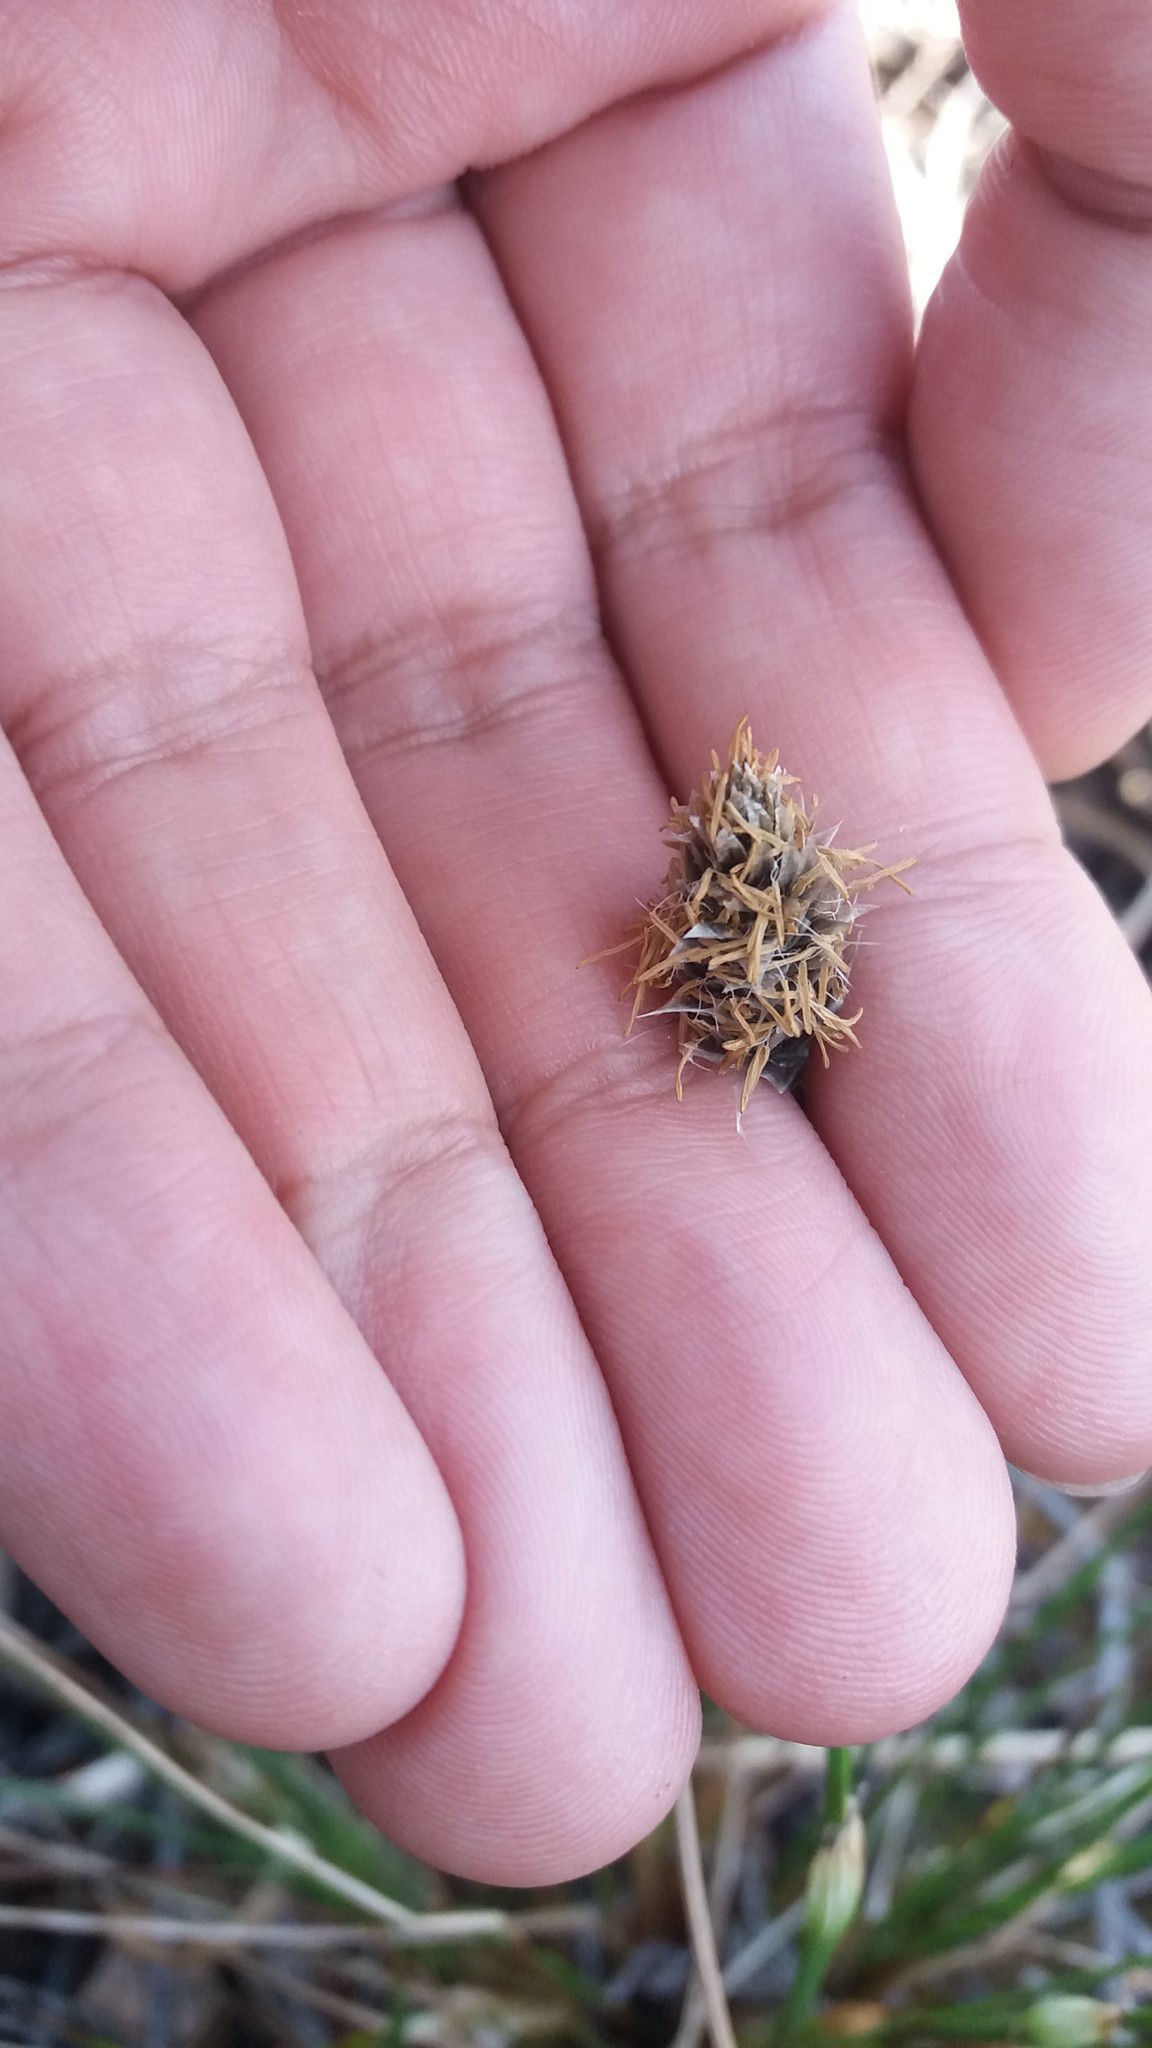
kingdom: Plantae
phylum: Tracheophyta
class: Liliopsida
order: Poales
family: Cyperaceae
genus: Eriophorum
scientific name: Eriophorum vaginatum
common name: Hare's-tail cottongrass
